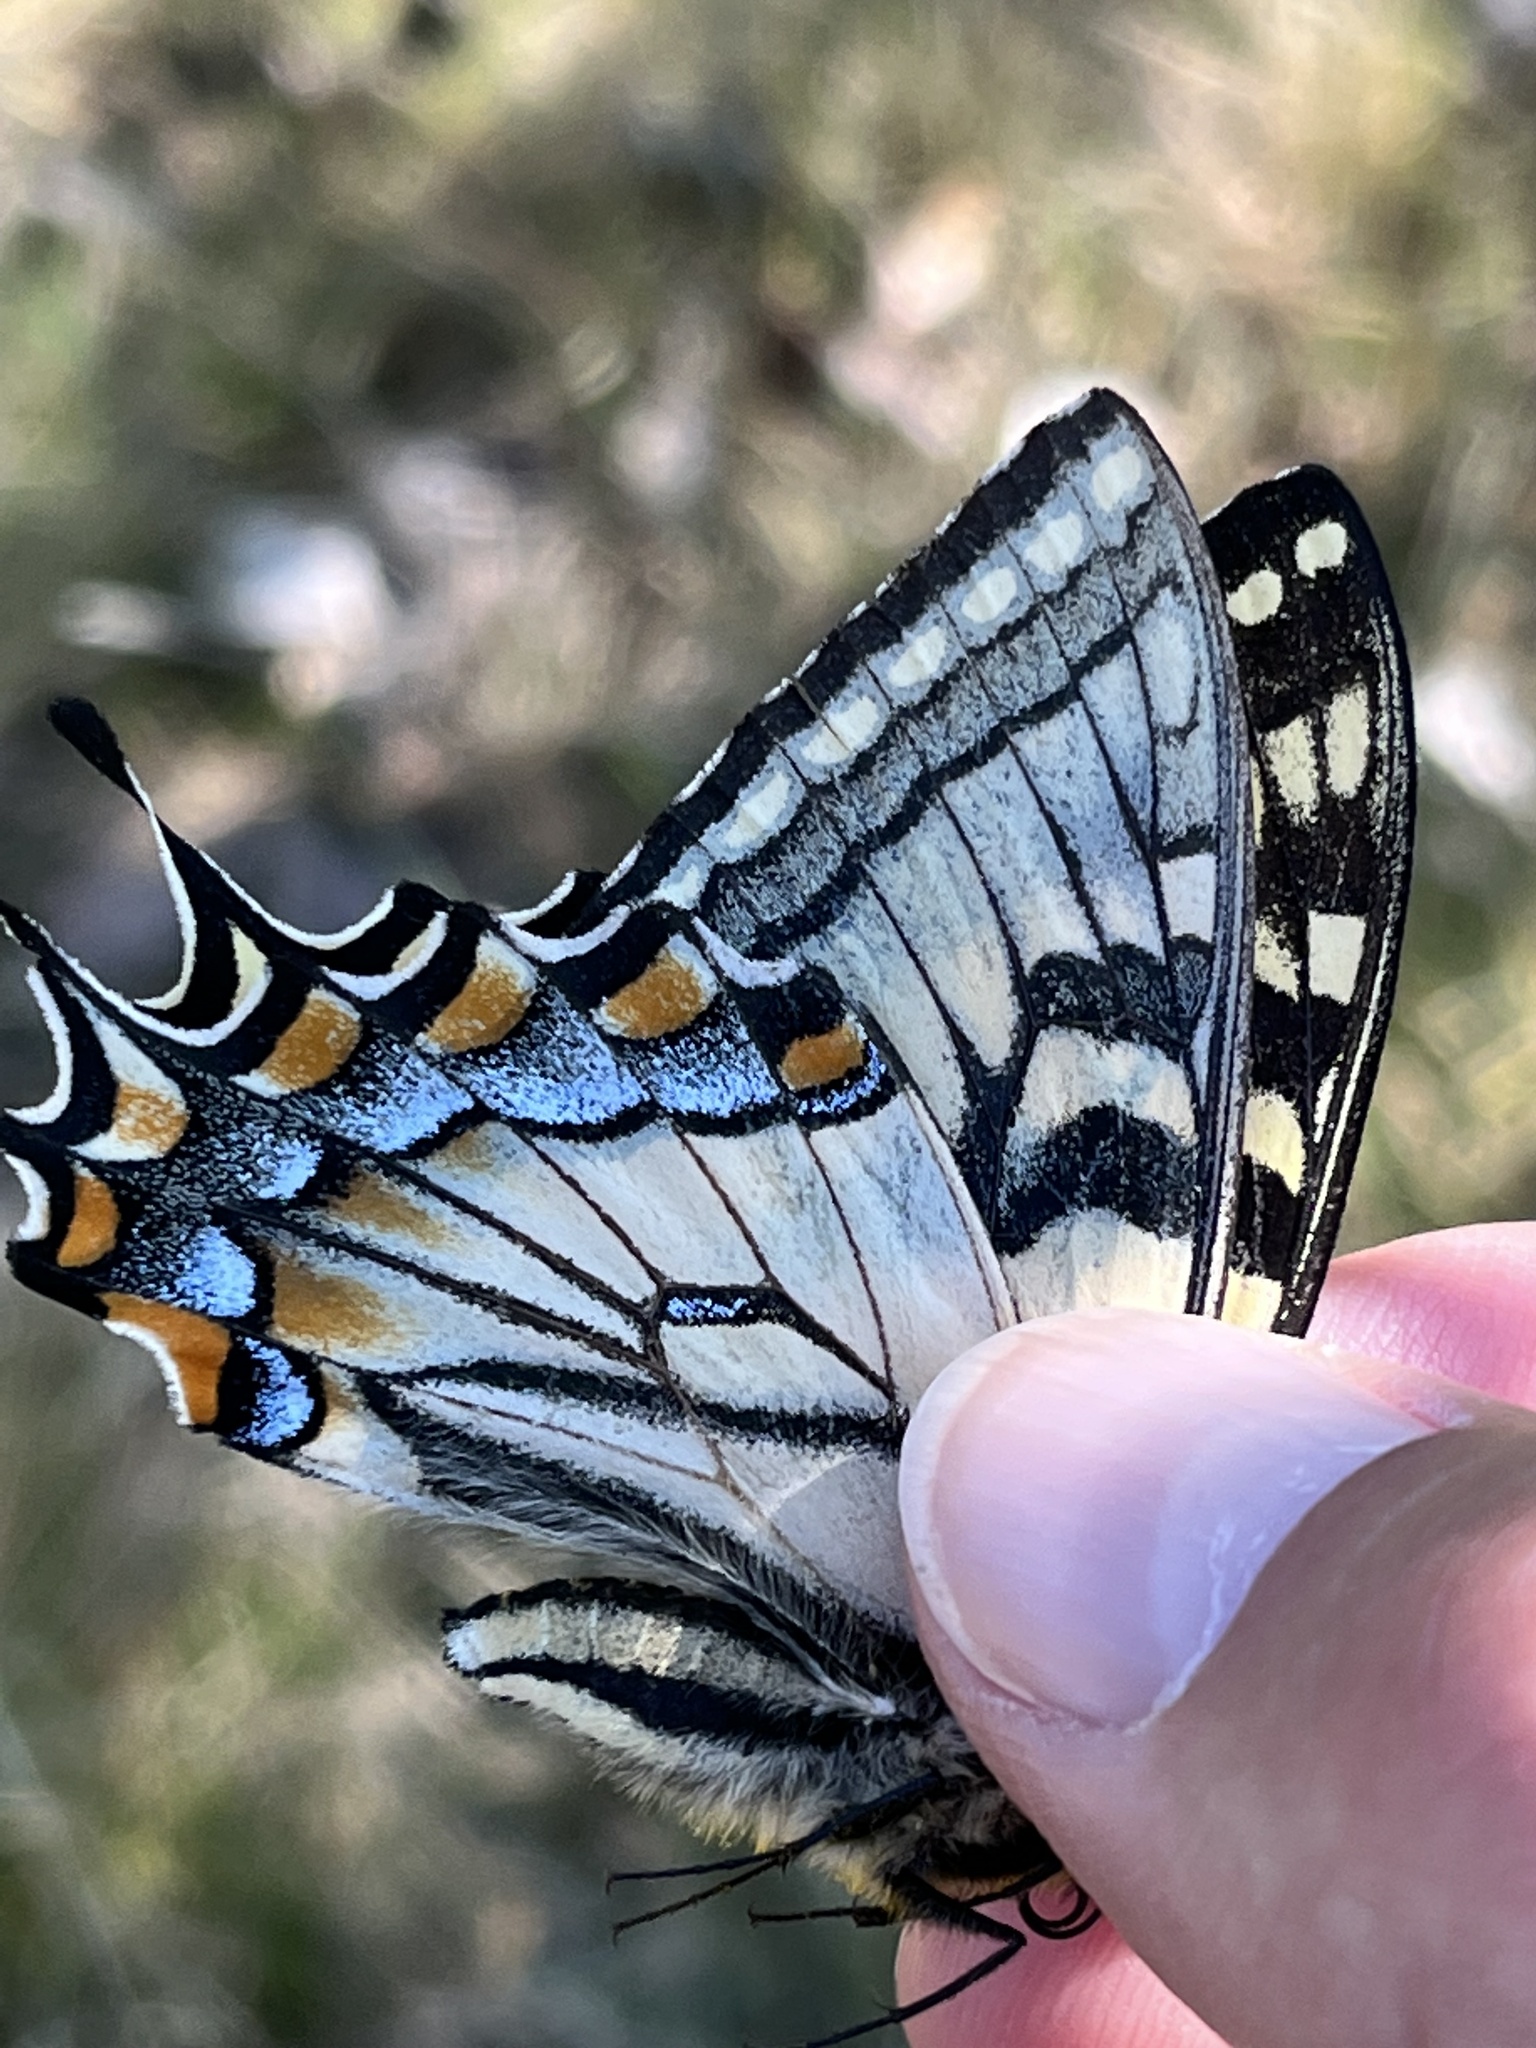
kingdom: Animalia
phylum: Arthropoda
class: Insecta
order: Lepidoptera
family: Papilionidae
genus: Papilio
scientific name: Papilio canadensis
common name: Canadian tiger swallowtail
